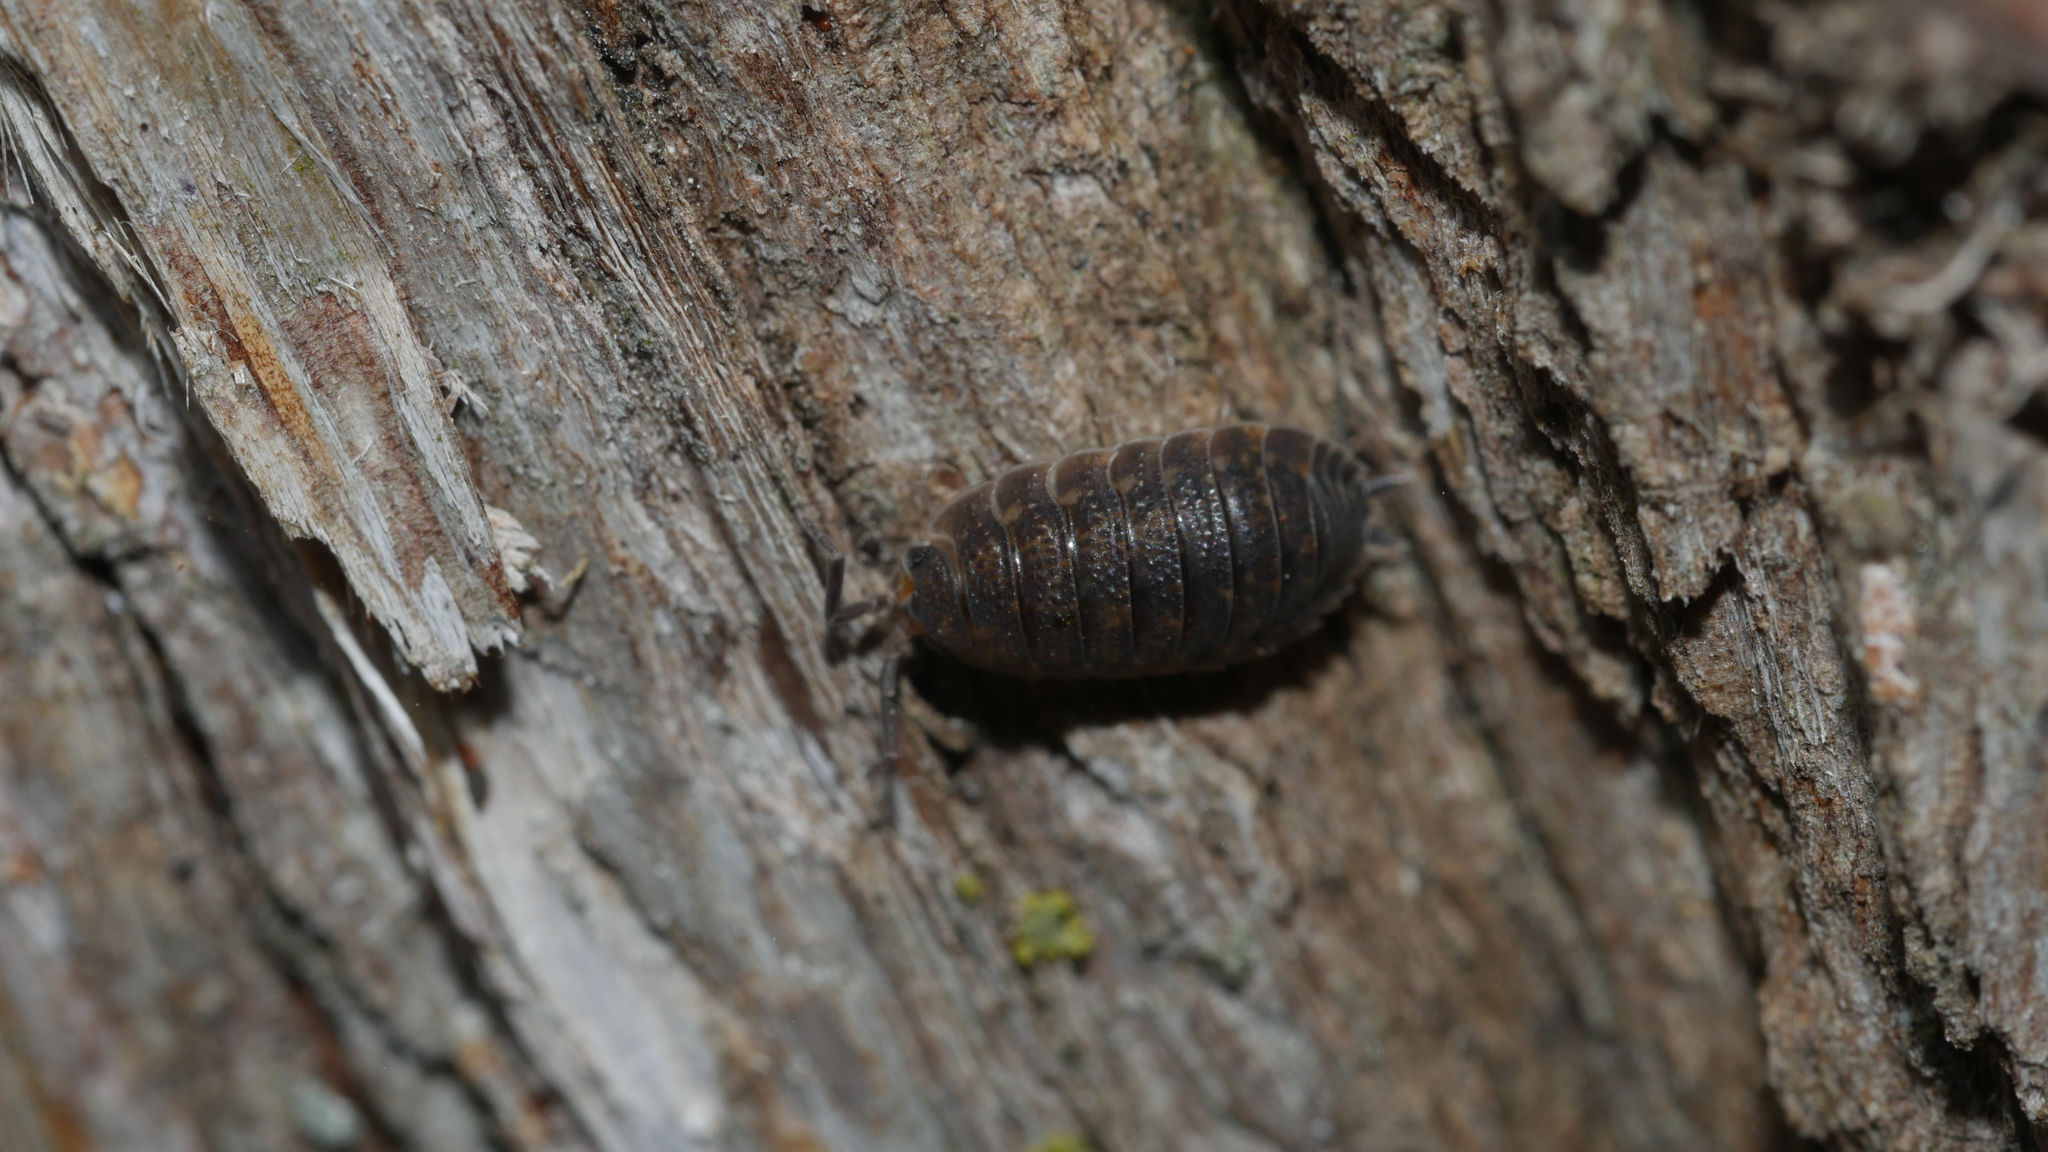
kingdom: Animalia
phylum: Arthropoda
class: Malacostraca
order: Isopoda
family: Porcellionidae
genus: Porcellio
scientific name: Porcellio scaber
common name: Common rough woodlouse
